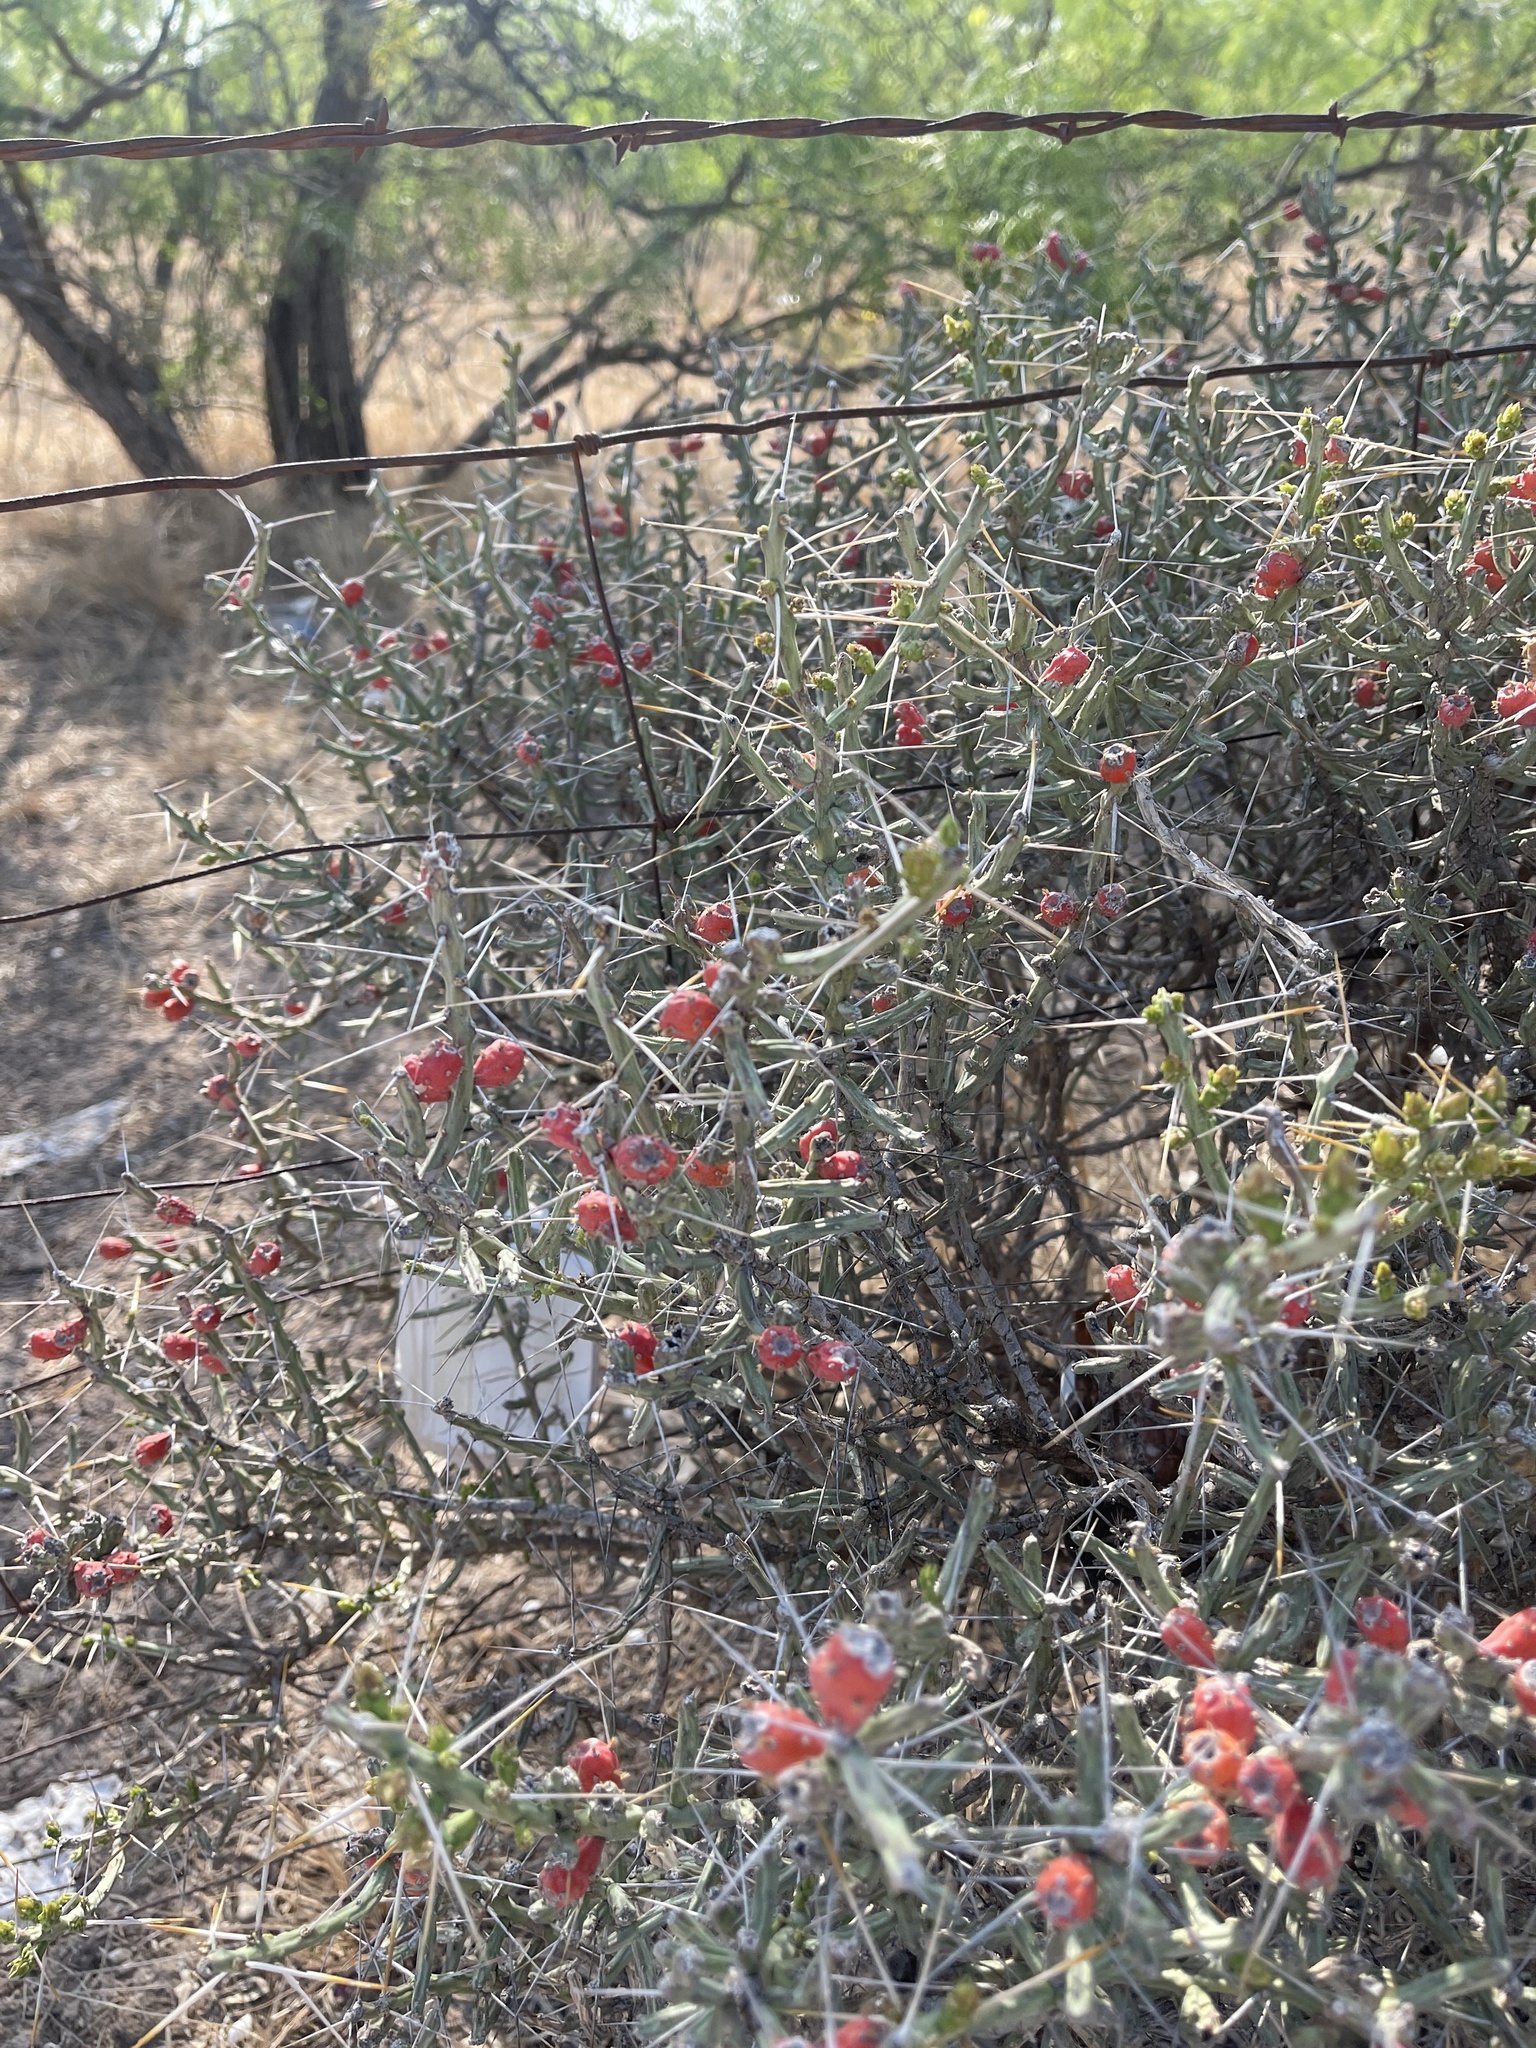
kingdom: Plantae
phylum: Tracheophyta
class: Magnoliopsida
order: Caryophyllales
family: Cactaceae
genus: Cylindropuntia
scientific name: Cylindropuntia leptocaulis
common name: Christmas cactus
